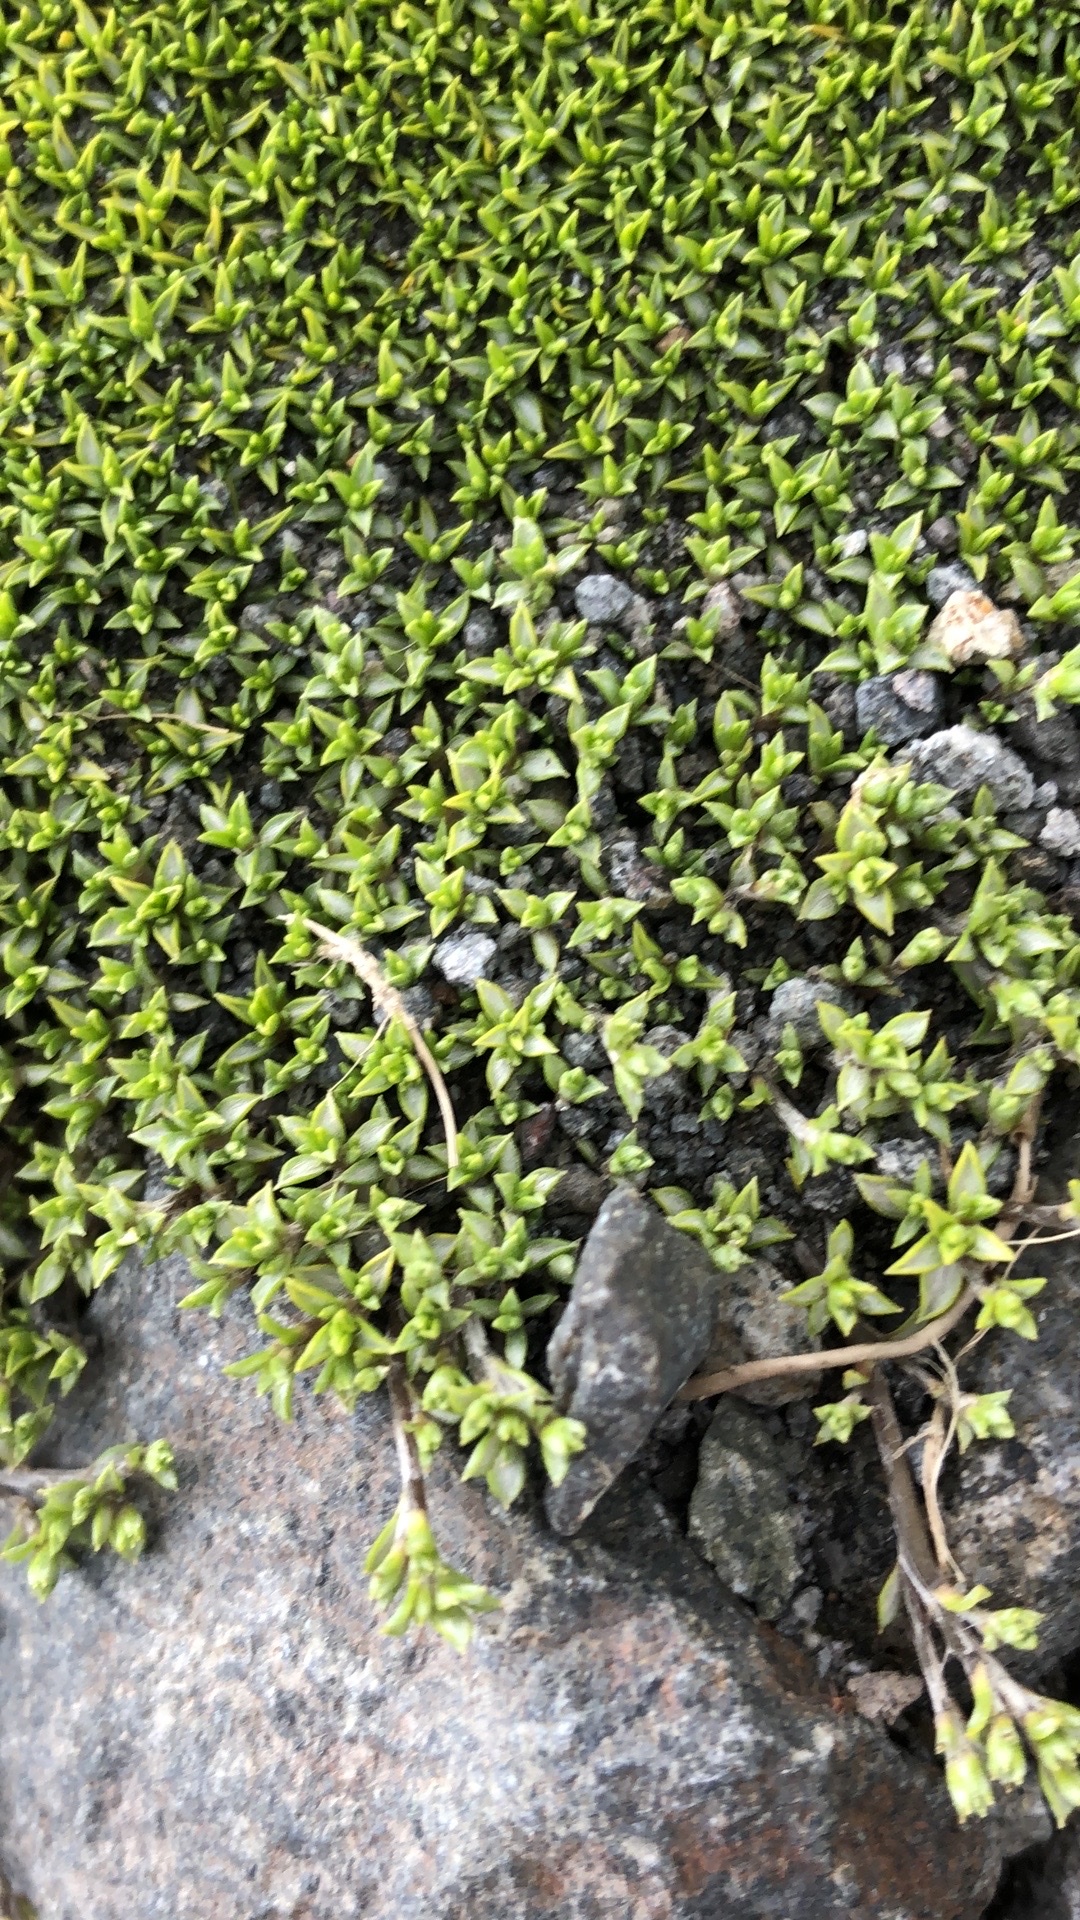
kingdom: Plantae
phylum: Tracheophyta
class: Magnoliopsida
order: Asterales
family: Asteraceae
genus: Raoulia
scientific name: Raoulia tenuicaulis
